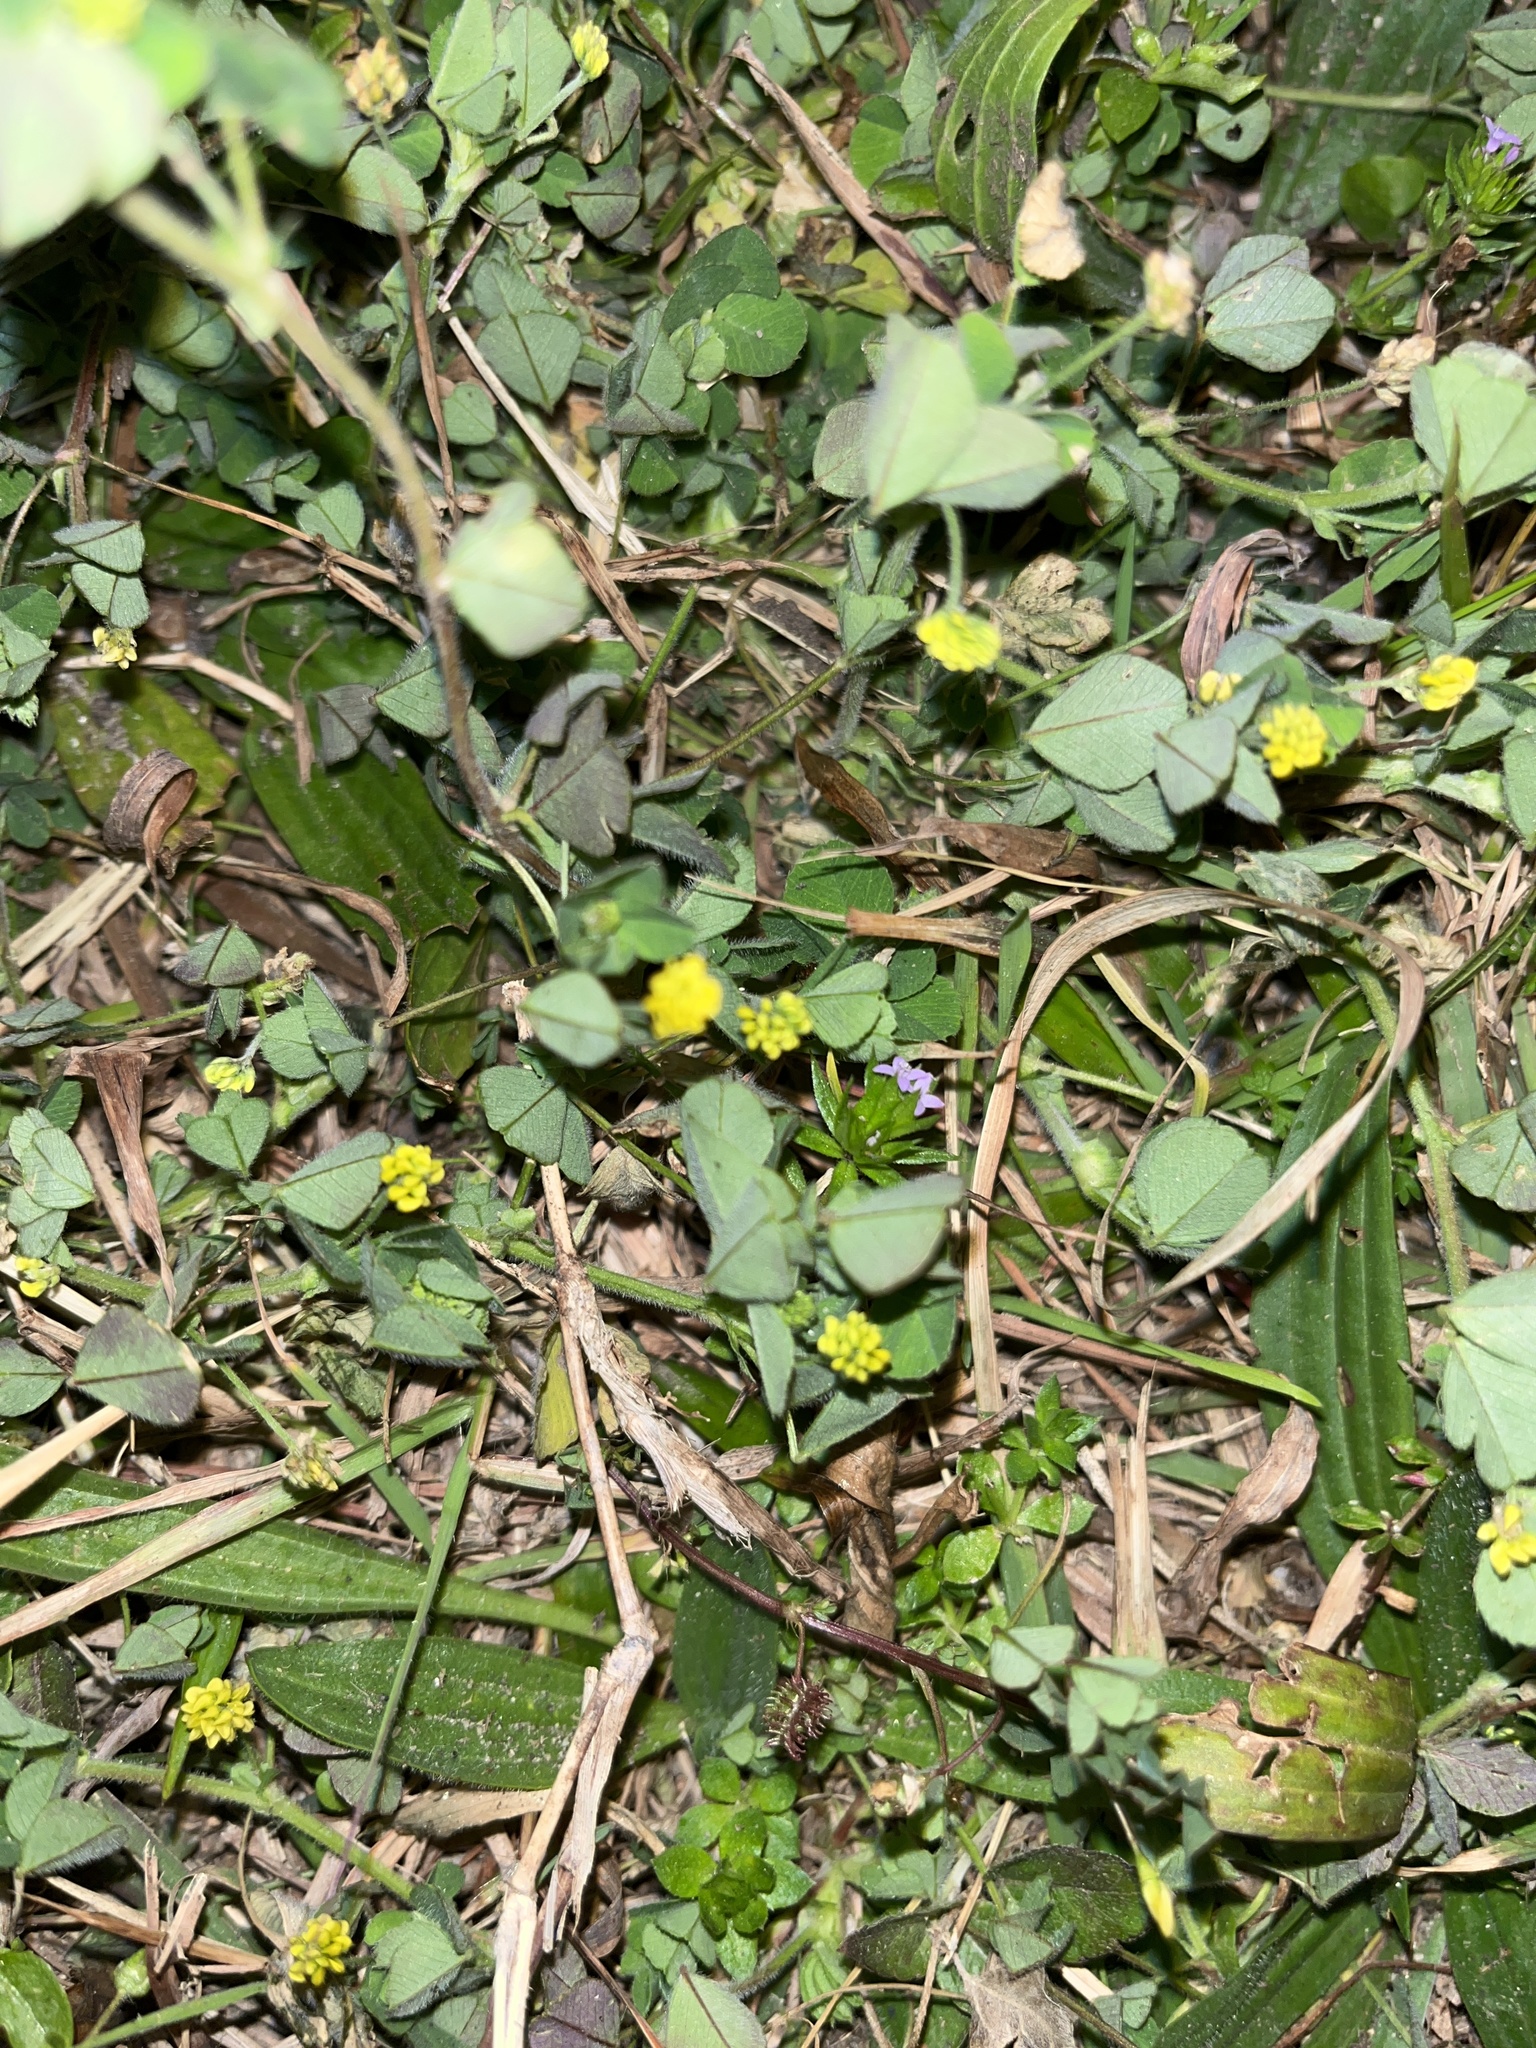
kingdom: Plantae
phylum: Tracheophyta
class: Magnoliopsida
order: Fabales
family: Fabaceae
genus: Medicago
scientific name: Medicago lupulina
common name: Black medick
